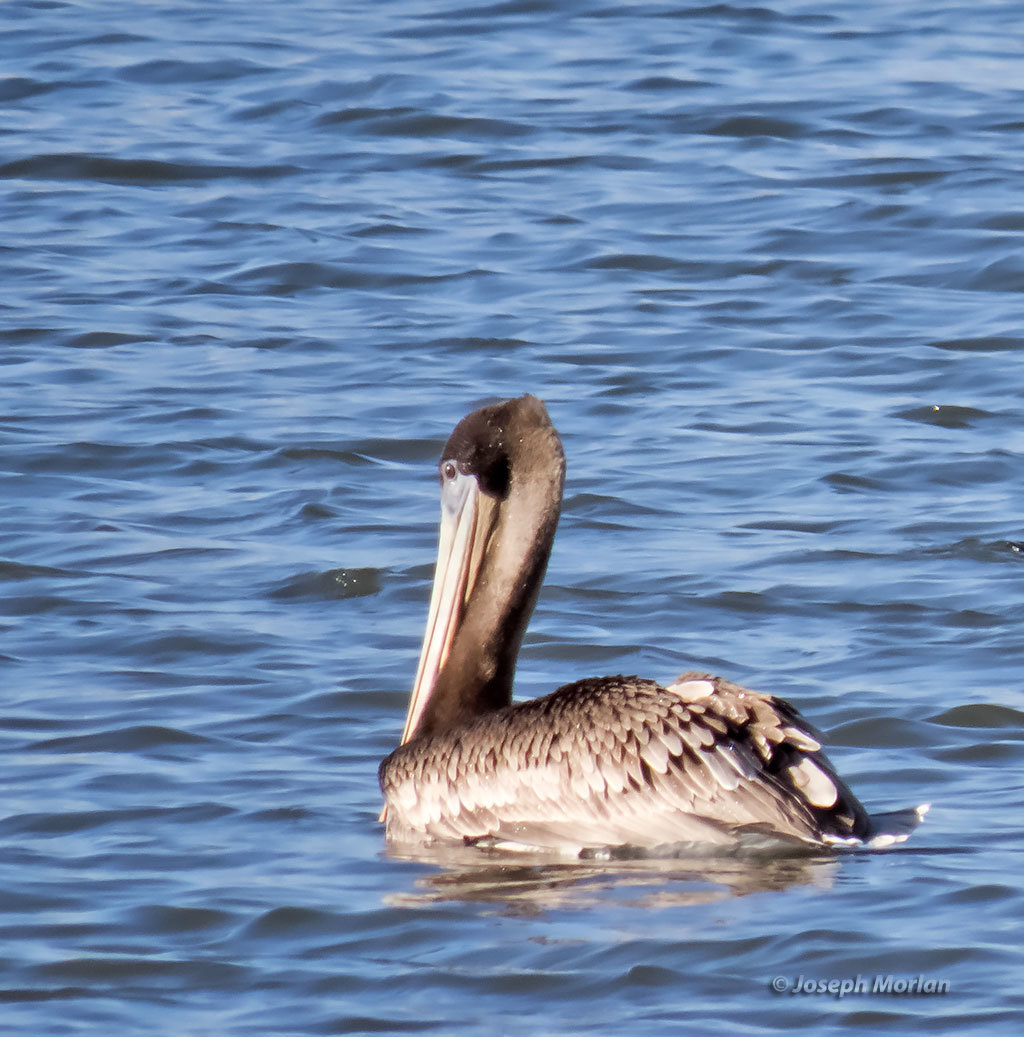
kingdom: Animalia
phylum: Chordata
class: Aves
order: Pelecaniformes
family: Pelecanidae
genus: Pelecanus
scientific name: Pelecanus occidentalis
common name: Brown pelican
